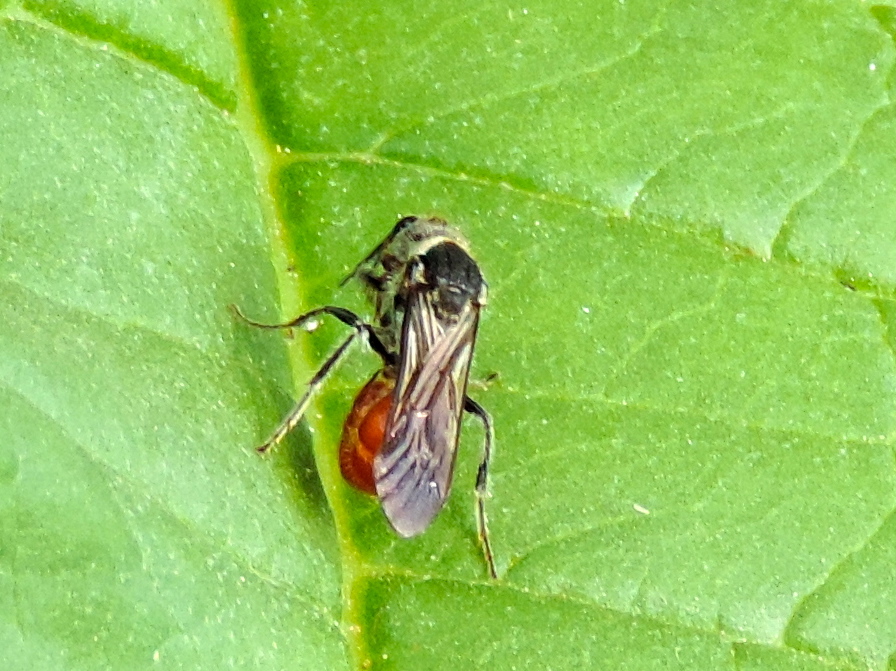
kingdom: Animalia
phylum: Arthropoda
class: Insecta
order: Hymenoptera
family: Mutillidae
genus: Timulla
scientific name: Timulla
